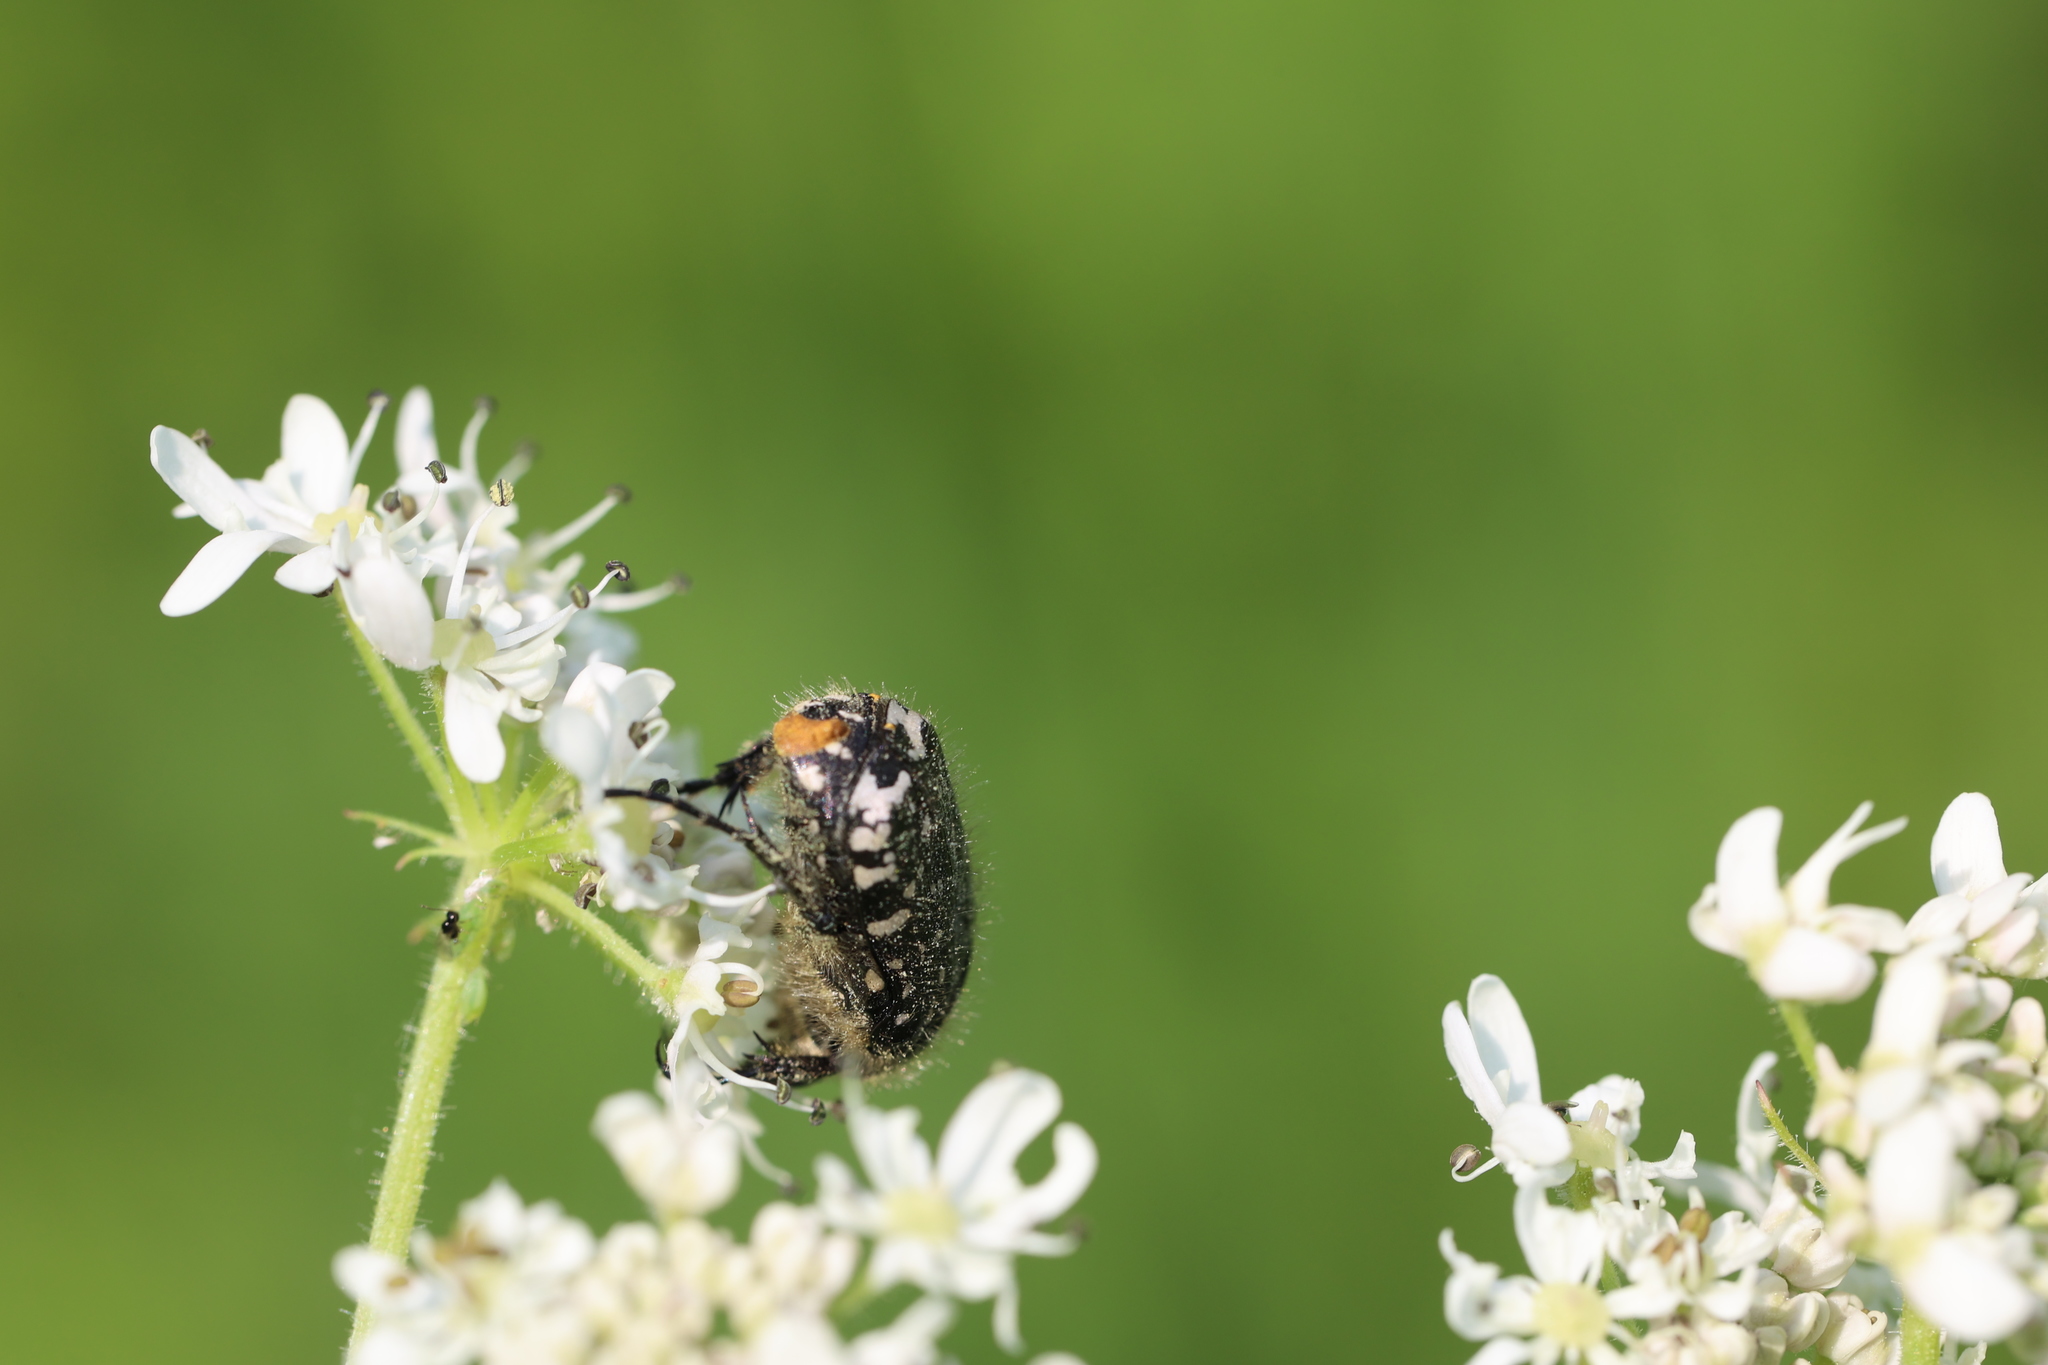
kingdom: Animalia
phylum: Arthropoda
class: Insecta
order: Coleoptera
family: Scarabaeidae
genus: Oxythyrea
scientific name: Oxythyrea funesta
